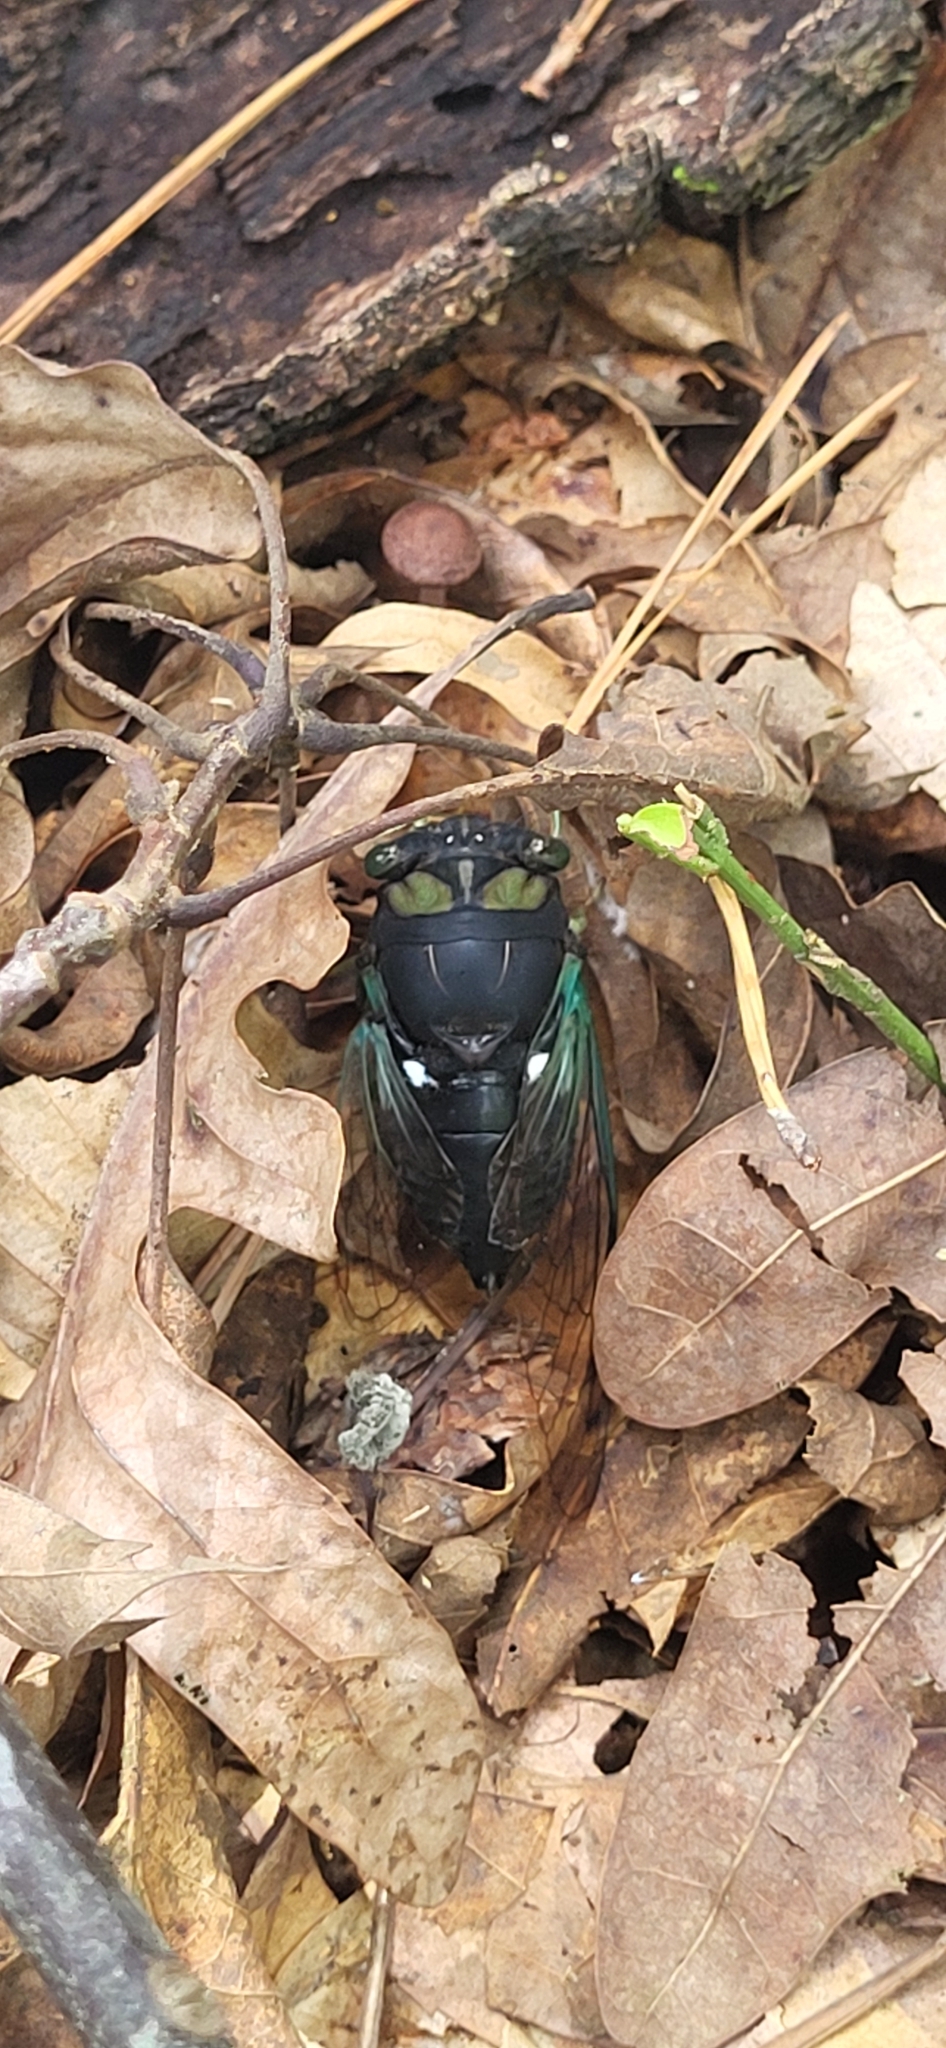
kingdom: Animalia
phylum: Arthropoda
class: Insecta
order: Hemiptera
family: Cicadidae
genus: Neotibicen
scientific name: Neotibicen tibicen
